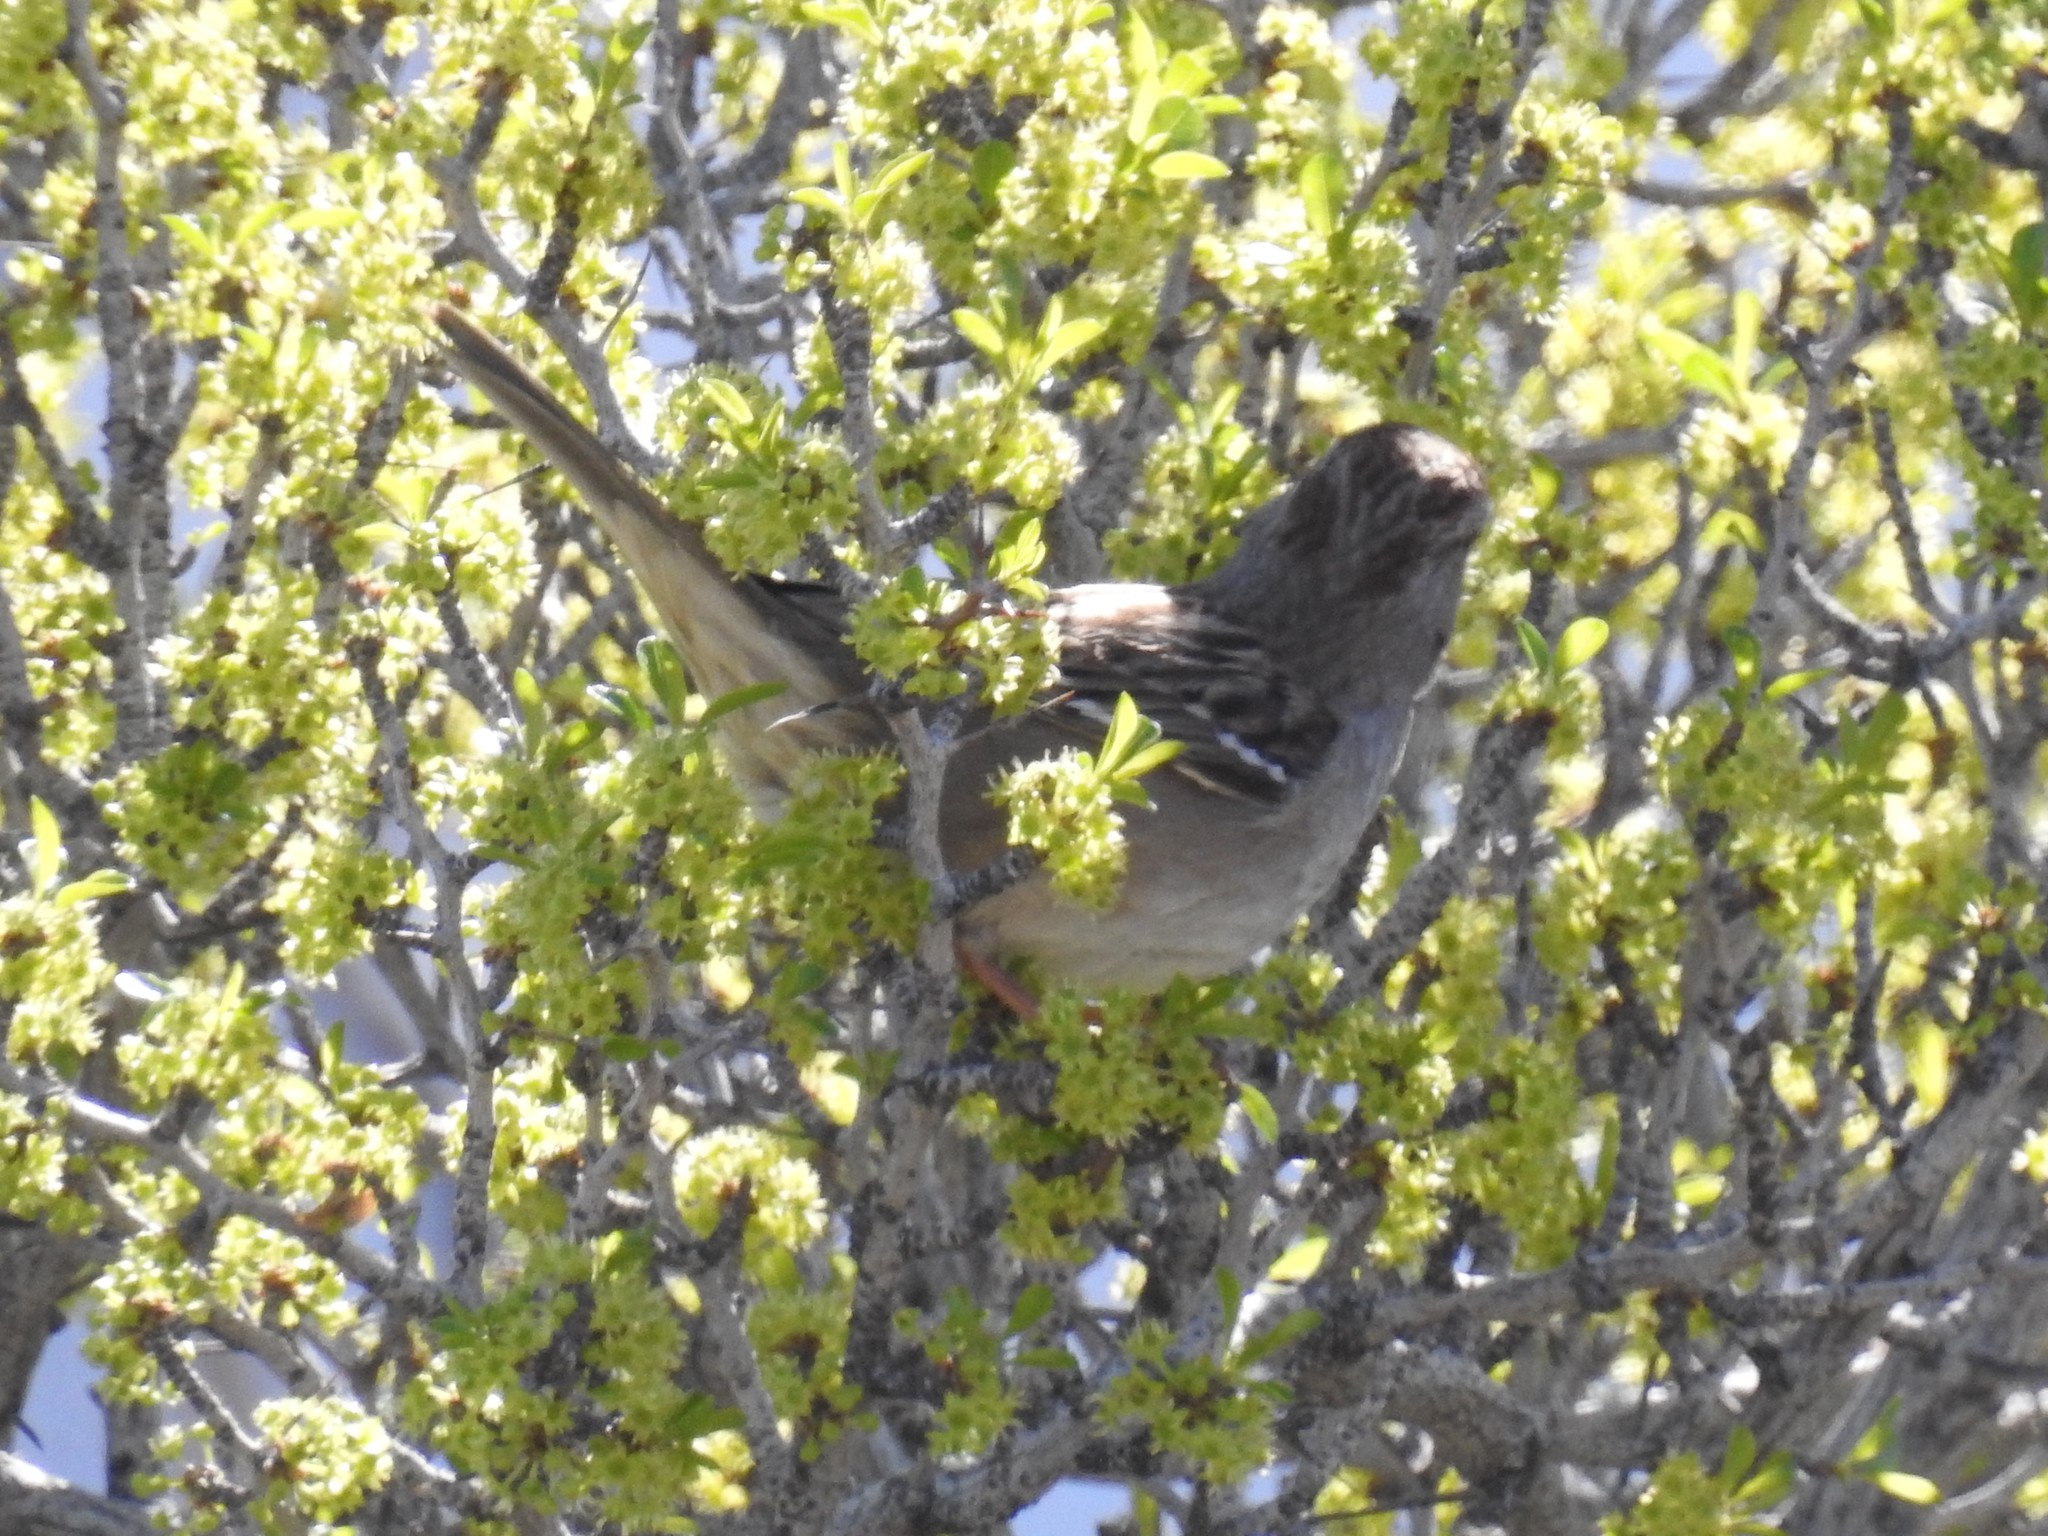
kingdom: Animalia
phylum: Chordata
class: Aves
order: Passeriformes
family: Passerellidae
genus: Zonotrichia
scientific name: Zonotrichia leucophrys
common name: White-crowned sparrow
